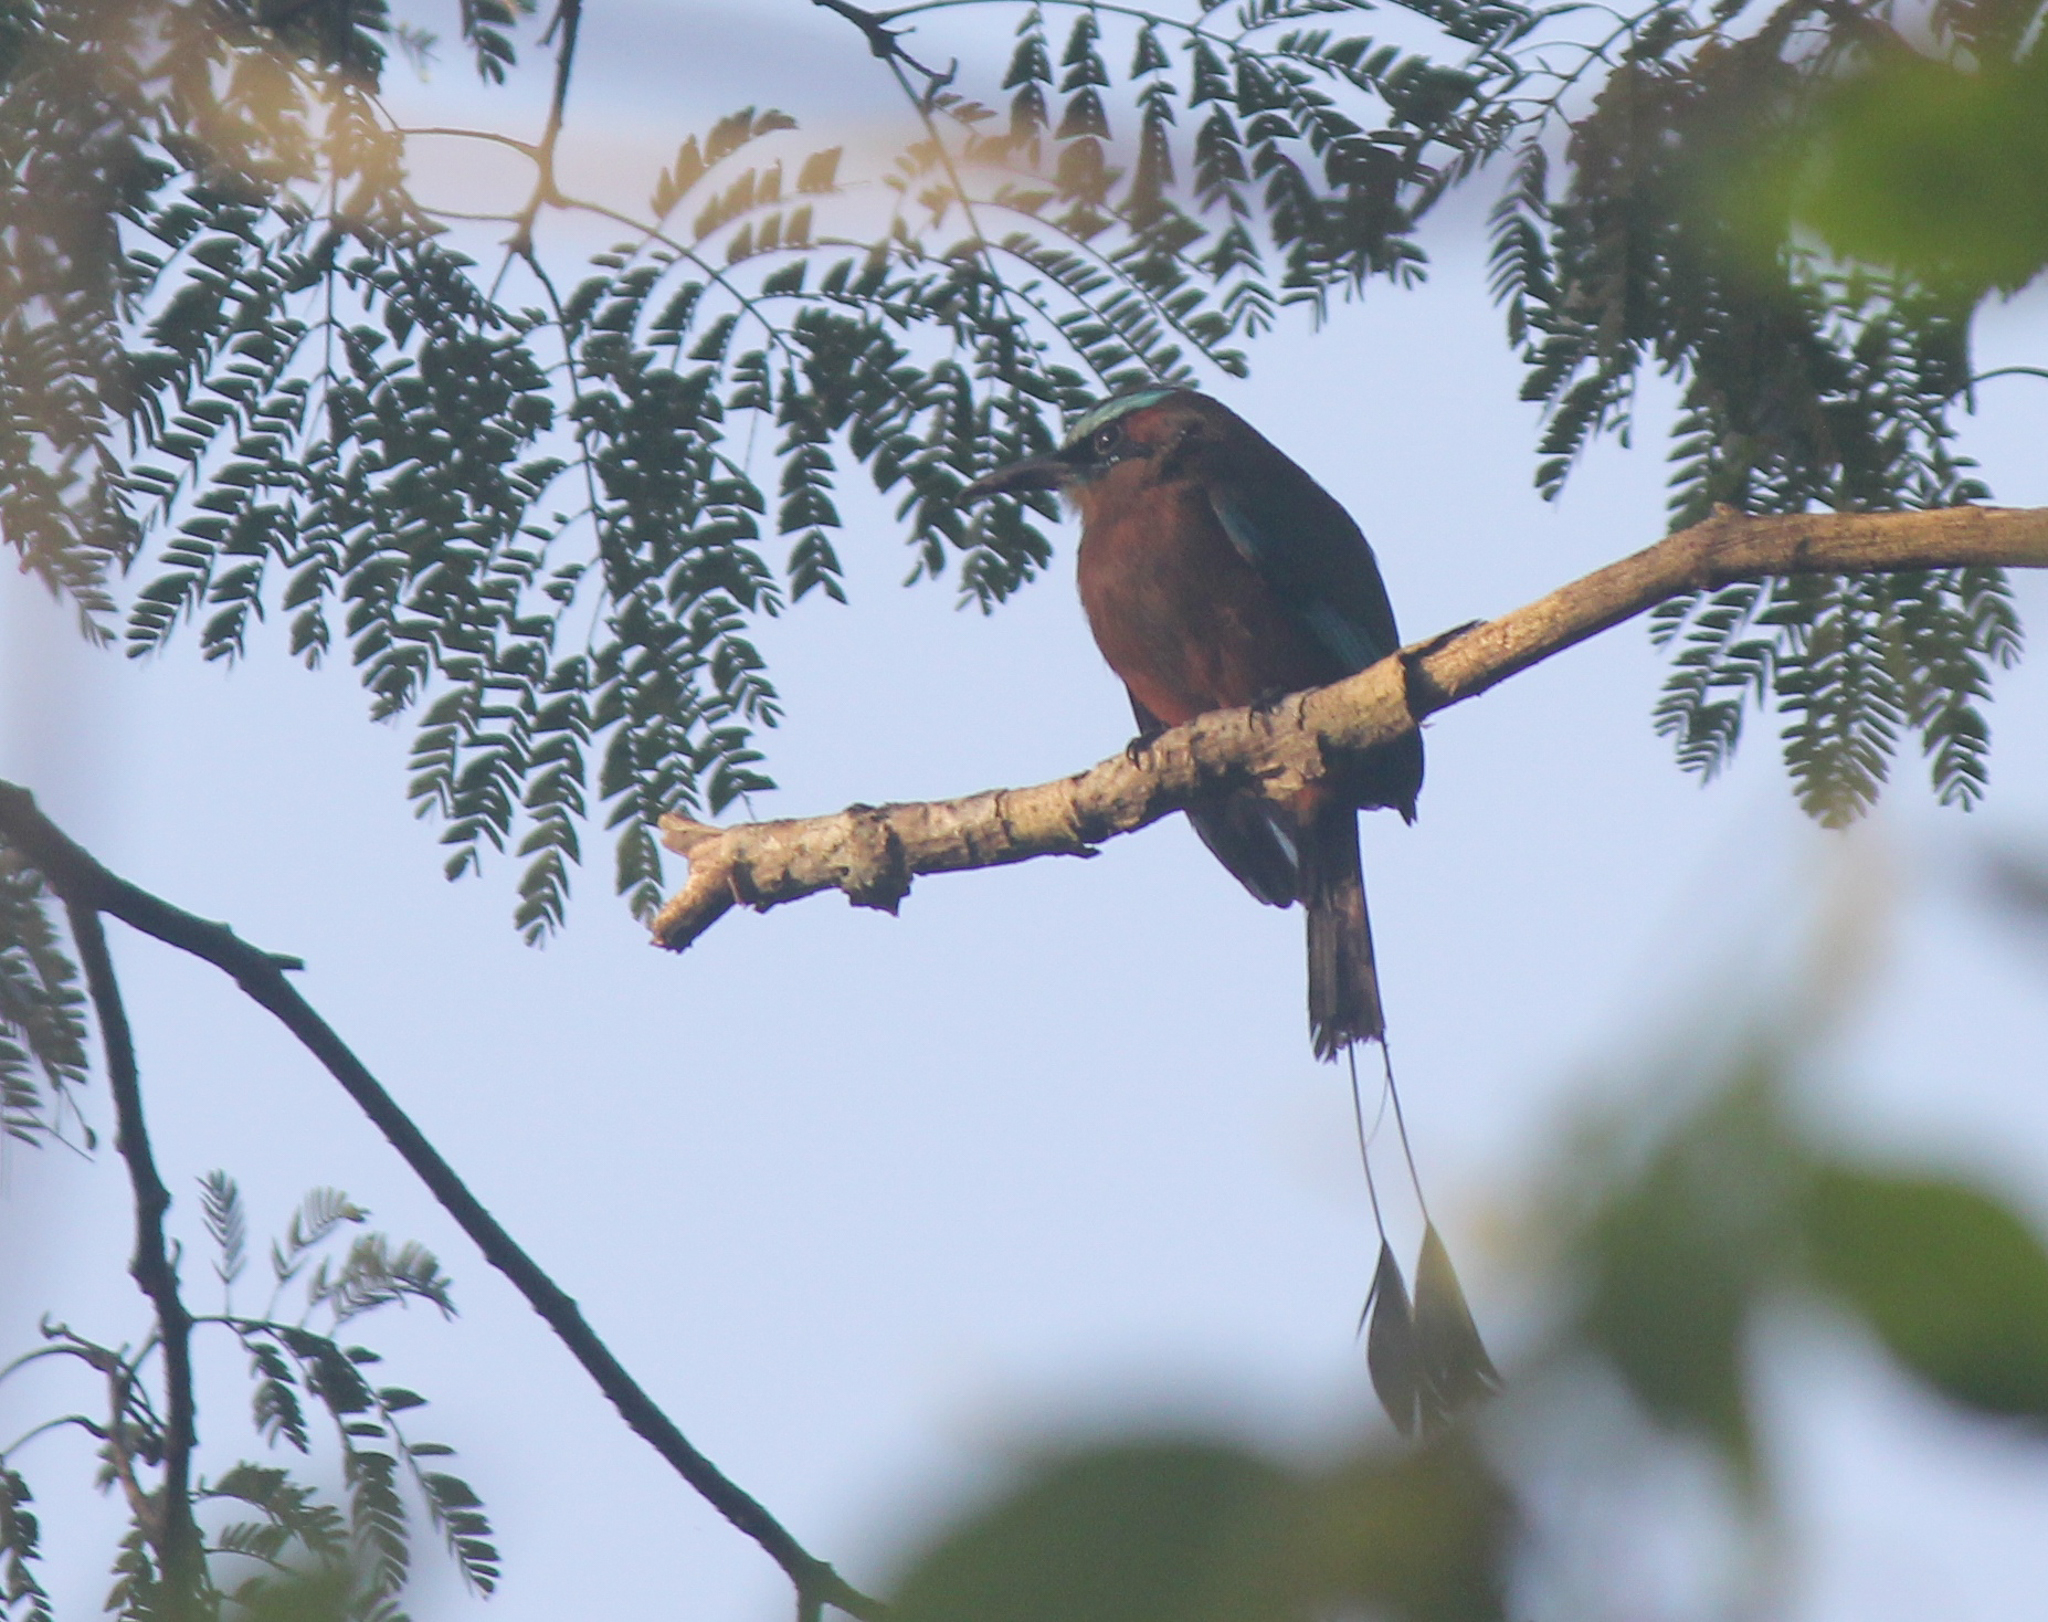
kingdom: Animalia
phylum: Chordata
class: Aves
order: Coraciiformes
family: Momotidae
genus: Eumomota
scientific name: Eumomota superciliosa
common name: Turquoise-browed motmot
